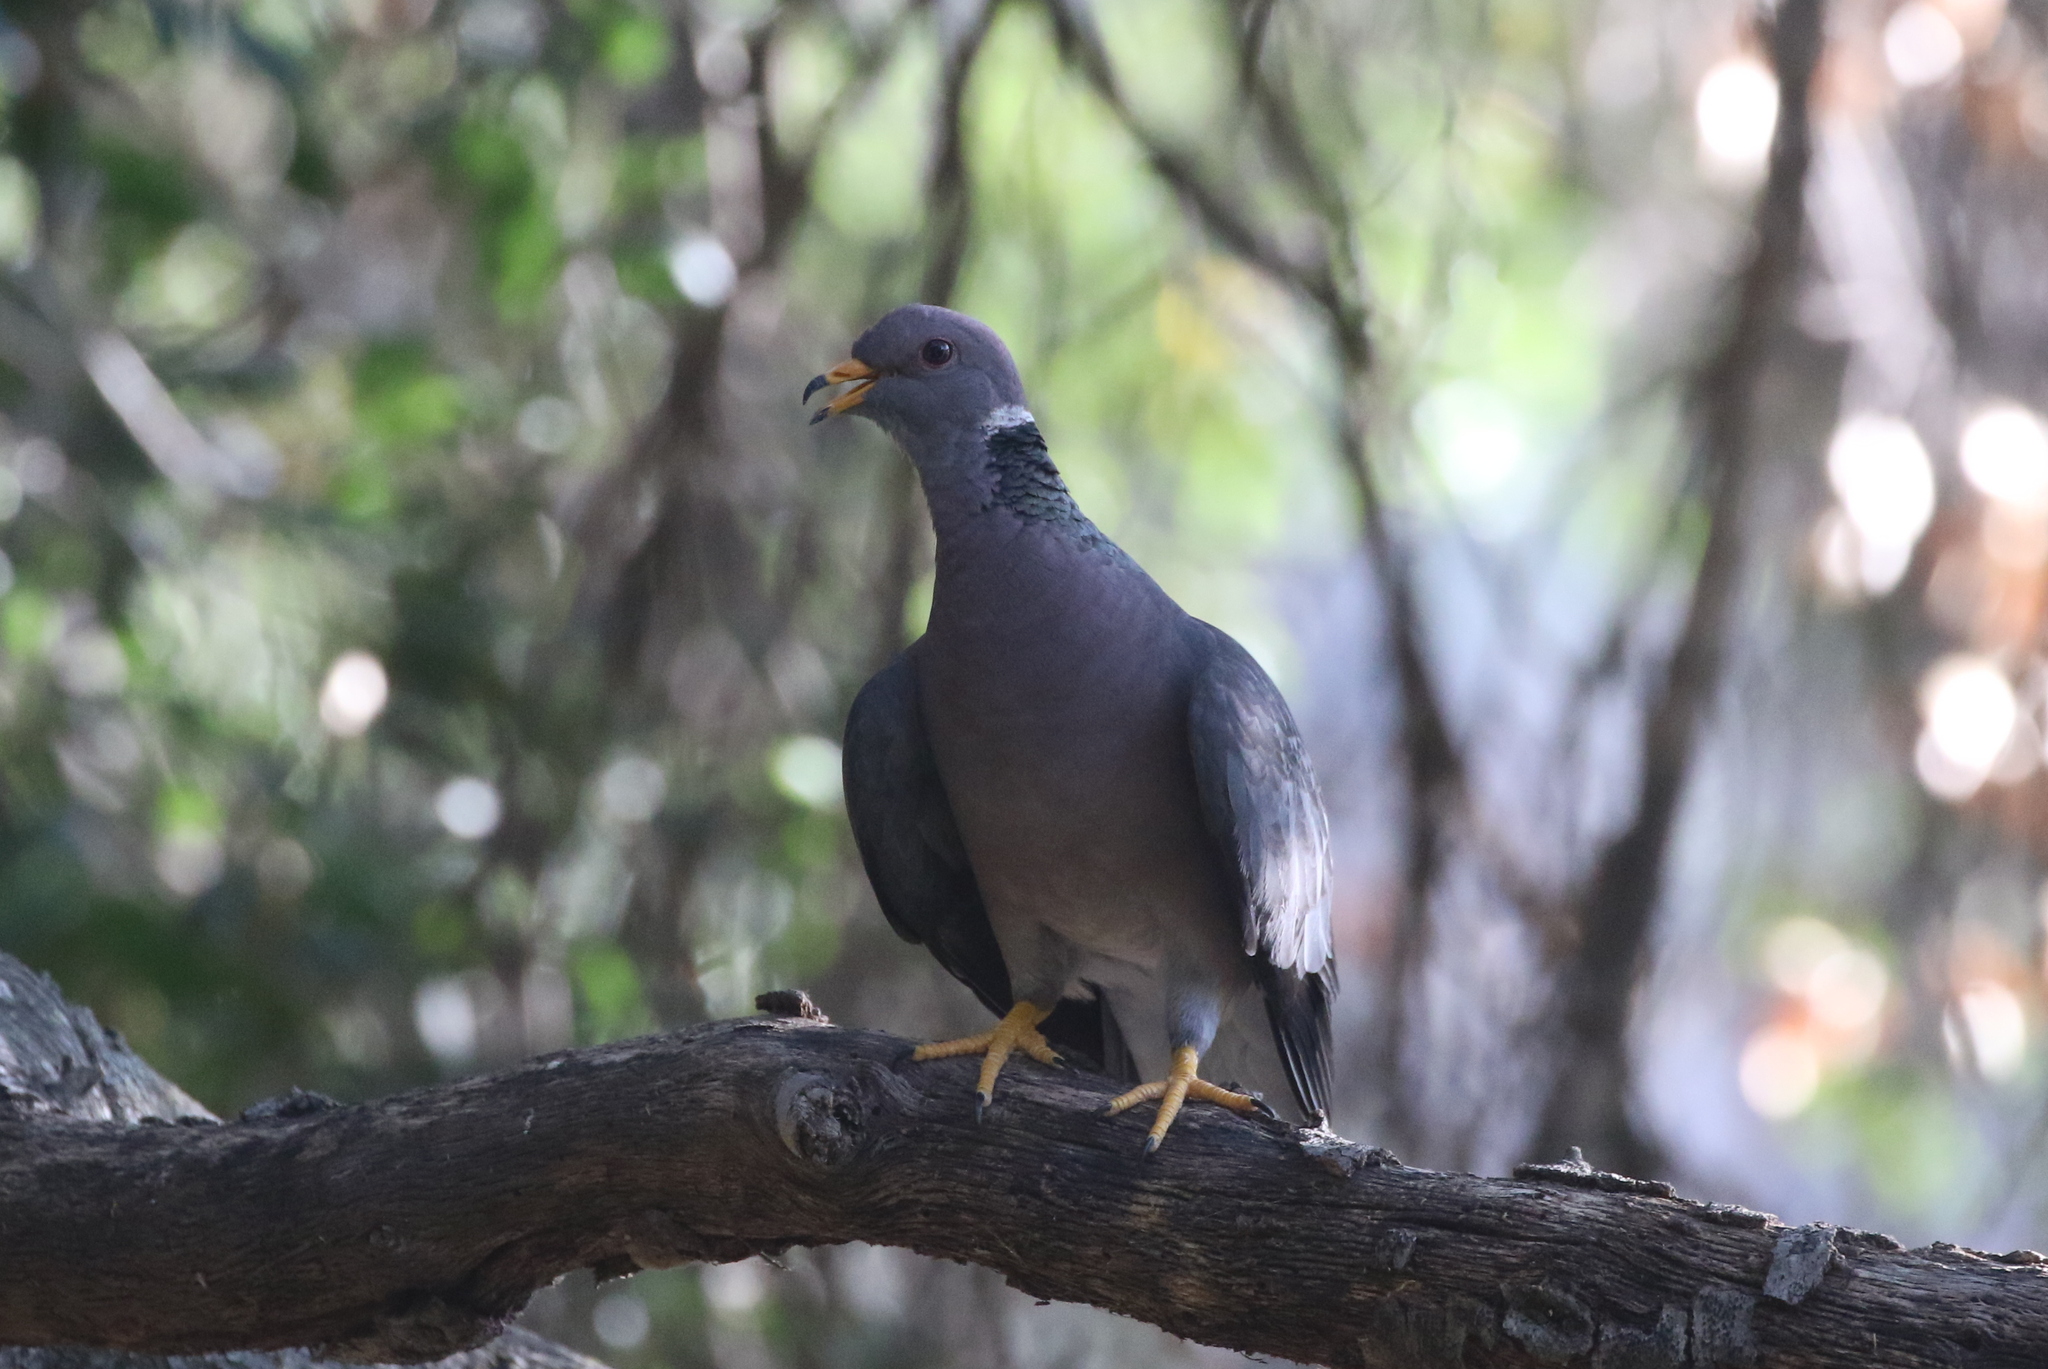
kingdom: Animalia
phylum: Chordata
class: Aves
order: Columbiformes
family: Columbidae
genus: Patagioenas
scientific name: Patagioenas fasciata
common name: Band-tailed pigeon
